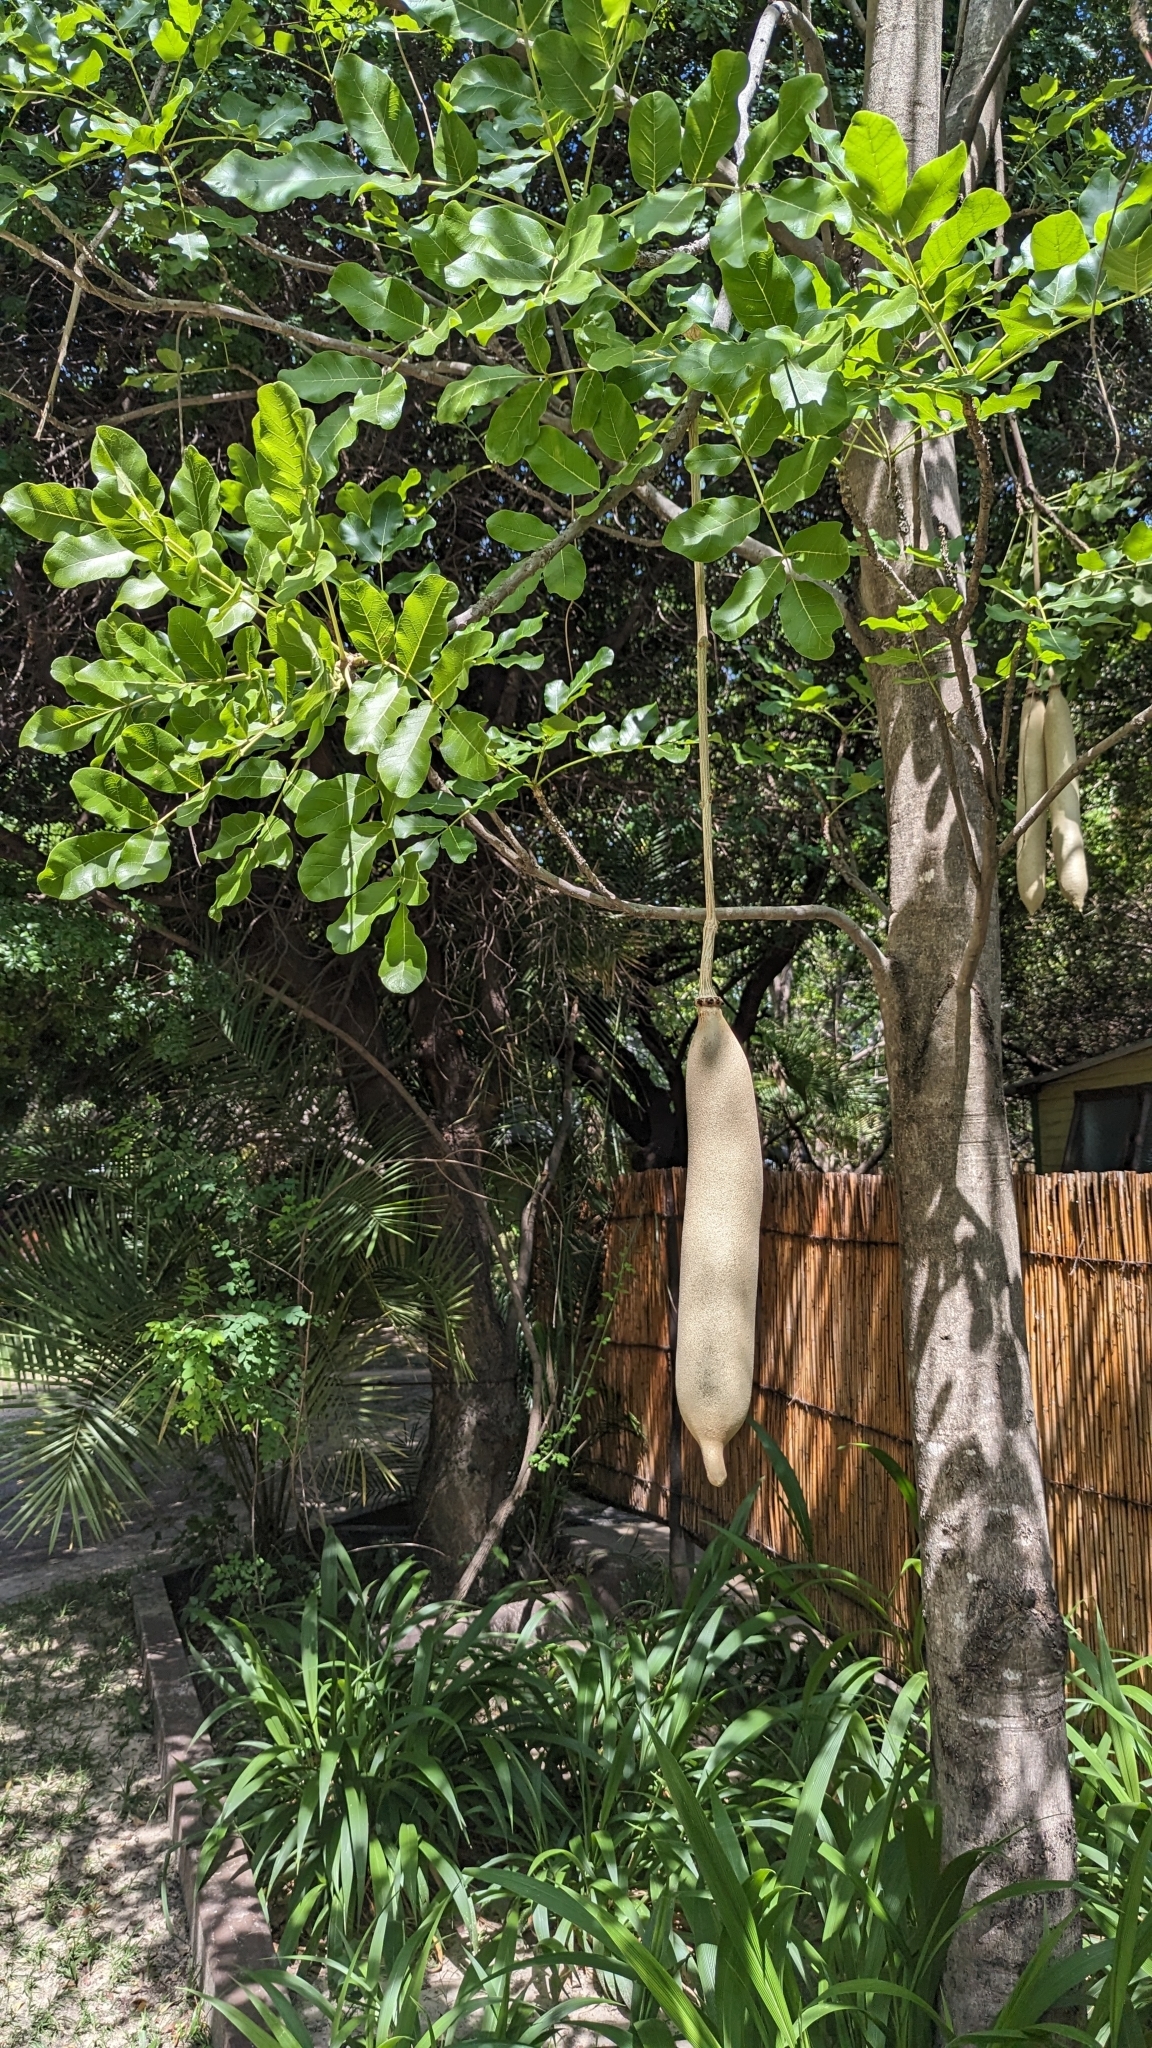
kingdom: Plantae
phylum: Tracheophyta
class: Magnoliopsida
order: Lamiales
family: Bignoniaceae
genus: Kigelia
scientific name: Kigelia africana
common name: Sausage tree
